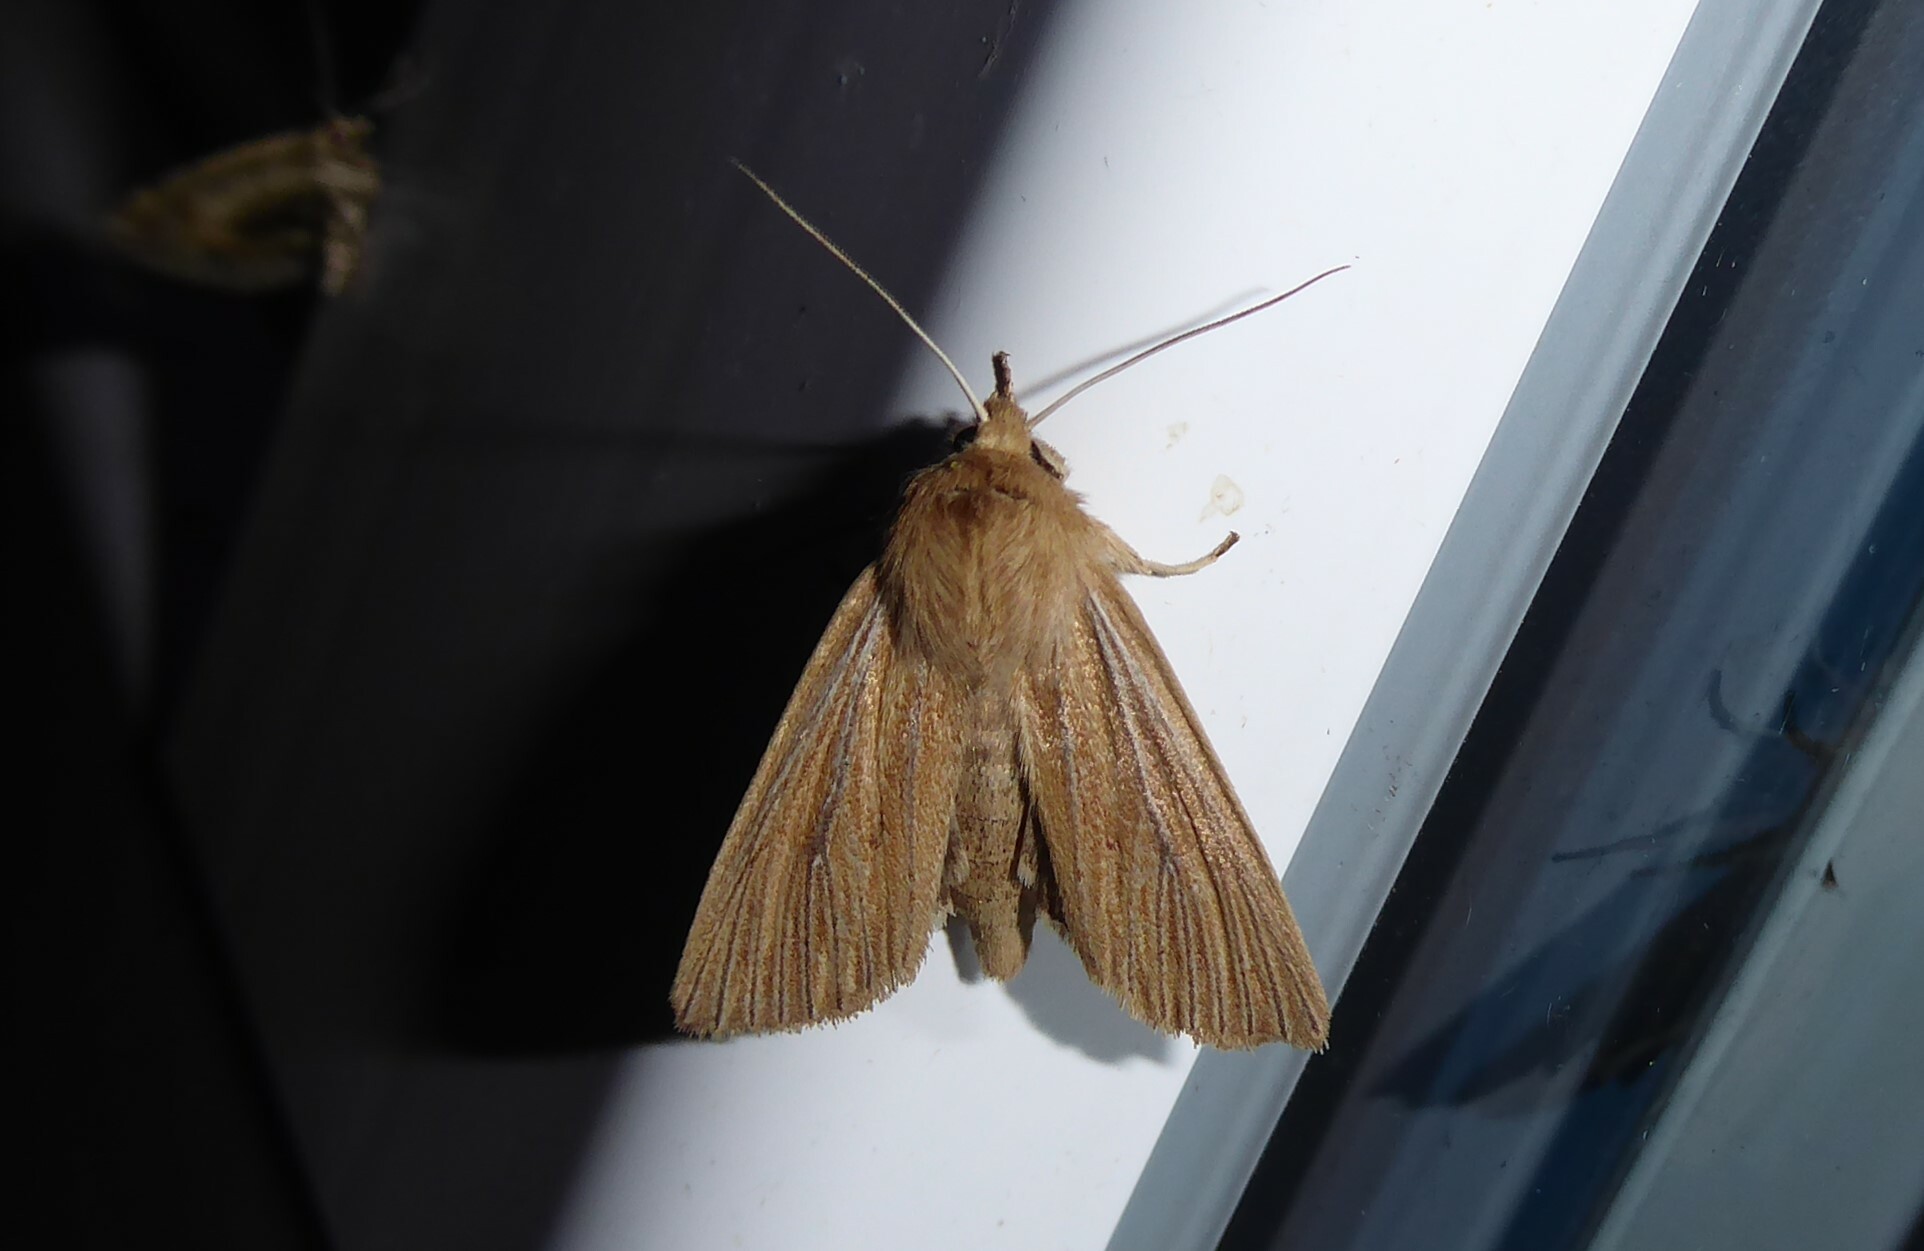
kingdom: Animalia
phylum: Arthropoda
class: Insecta
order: Lepidoptera
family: Noctuidae
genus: Ichneutica
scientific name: Ichneutica arotis
